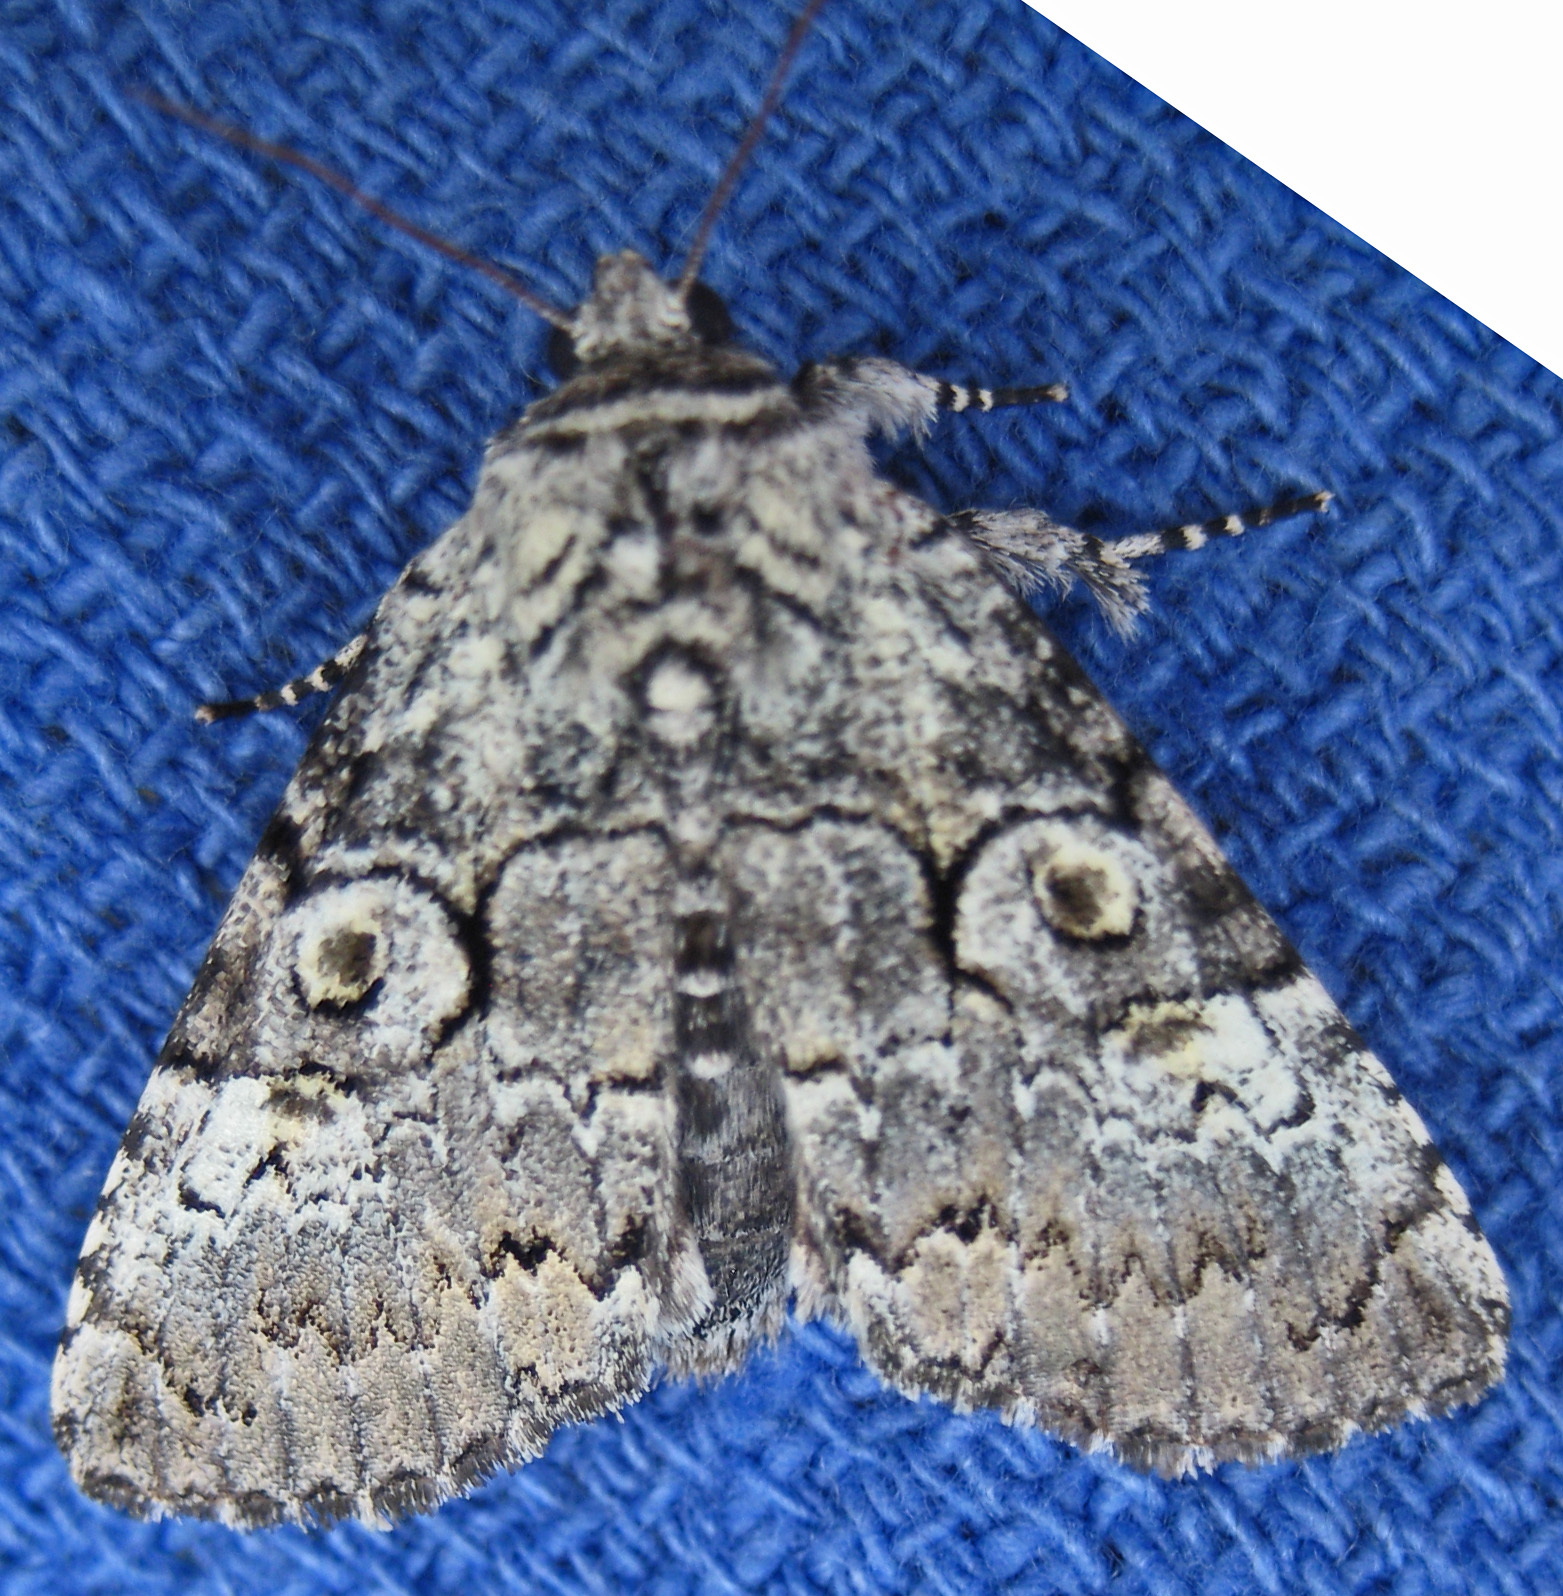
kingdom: Animalia
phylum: Arthropoda
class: Insecta
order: Lepidoptera
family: Noctuidae
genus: Charadra
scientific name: Charadra deridens
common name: Marbled tuffet
